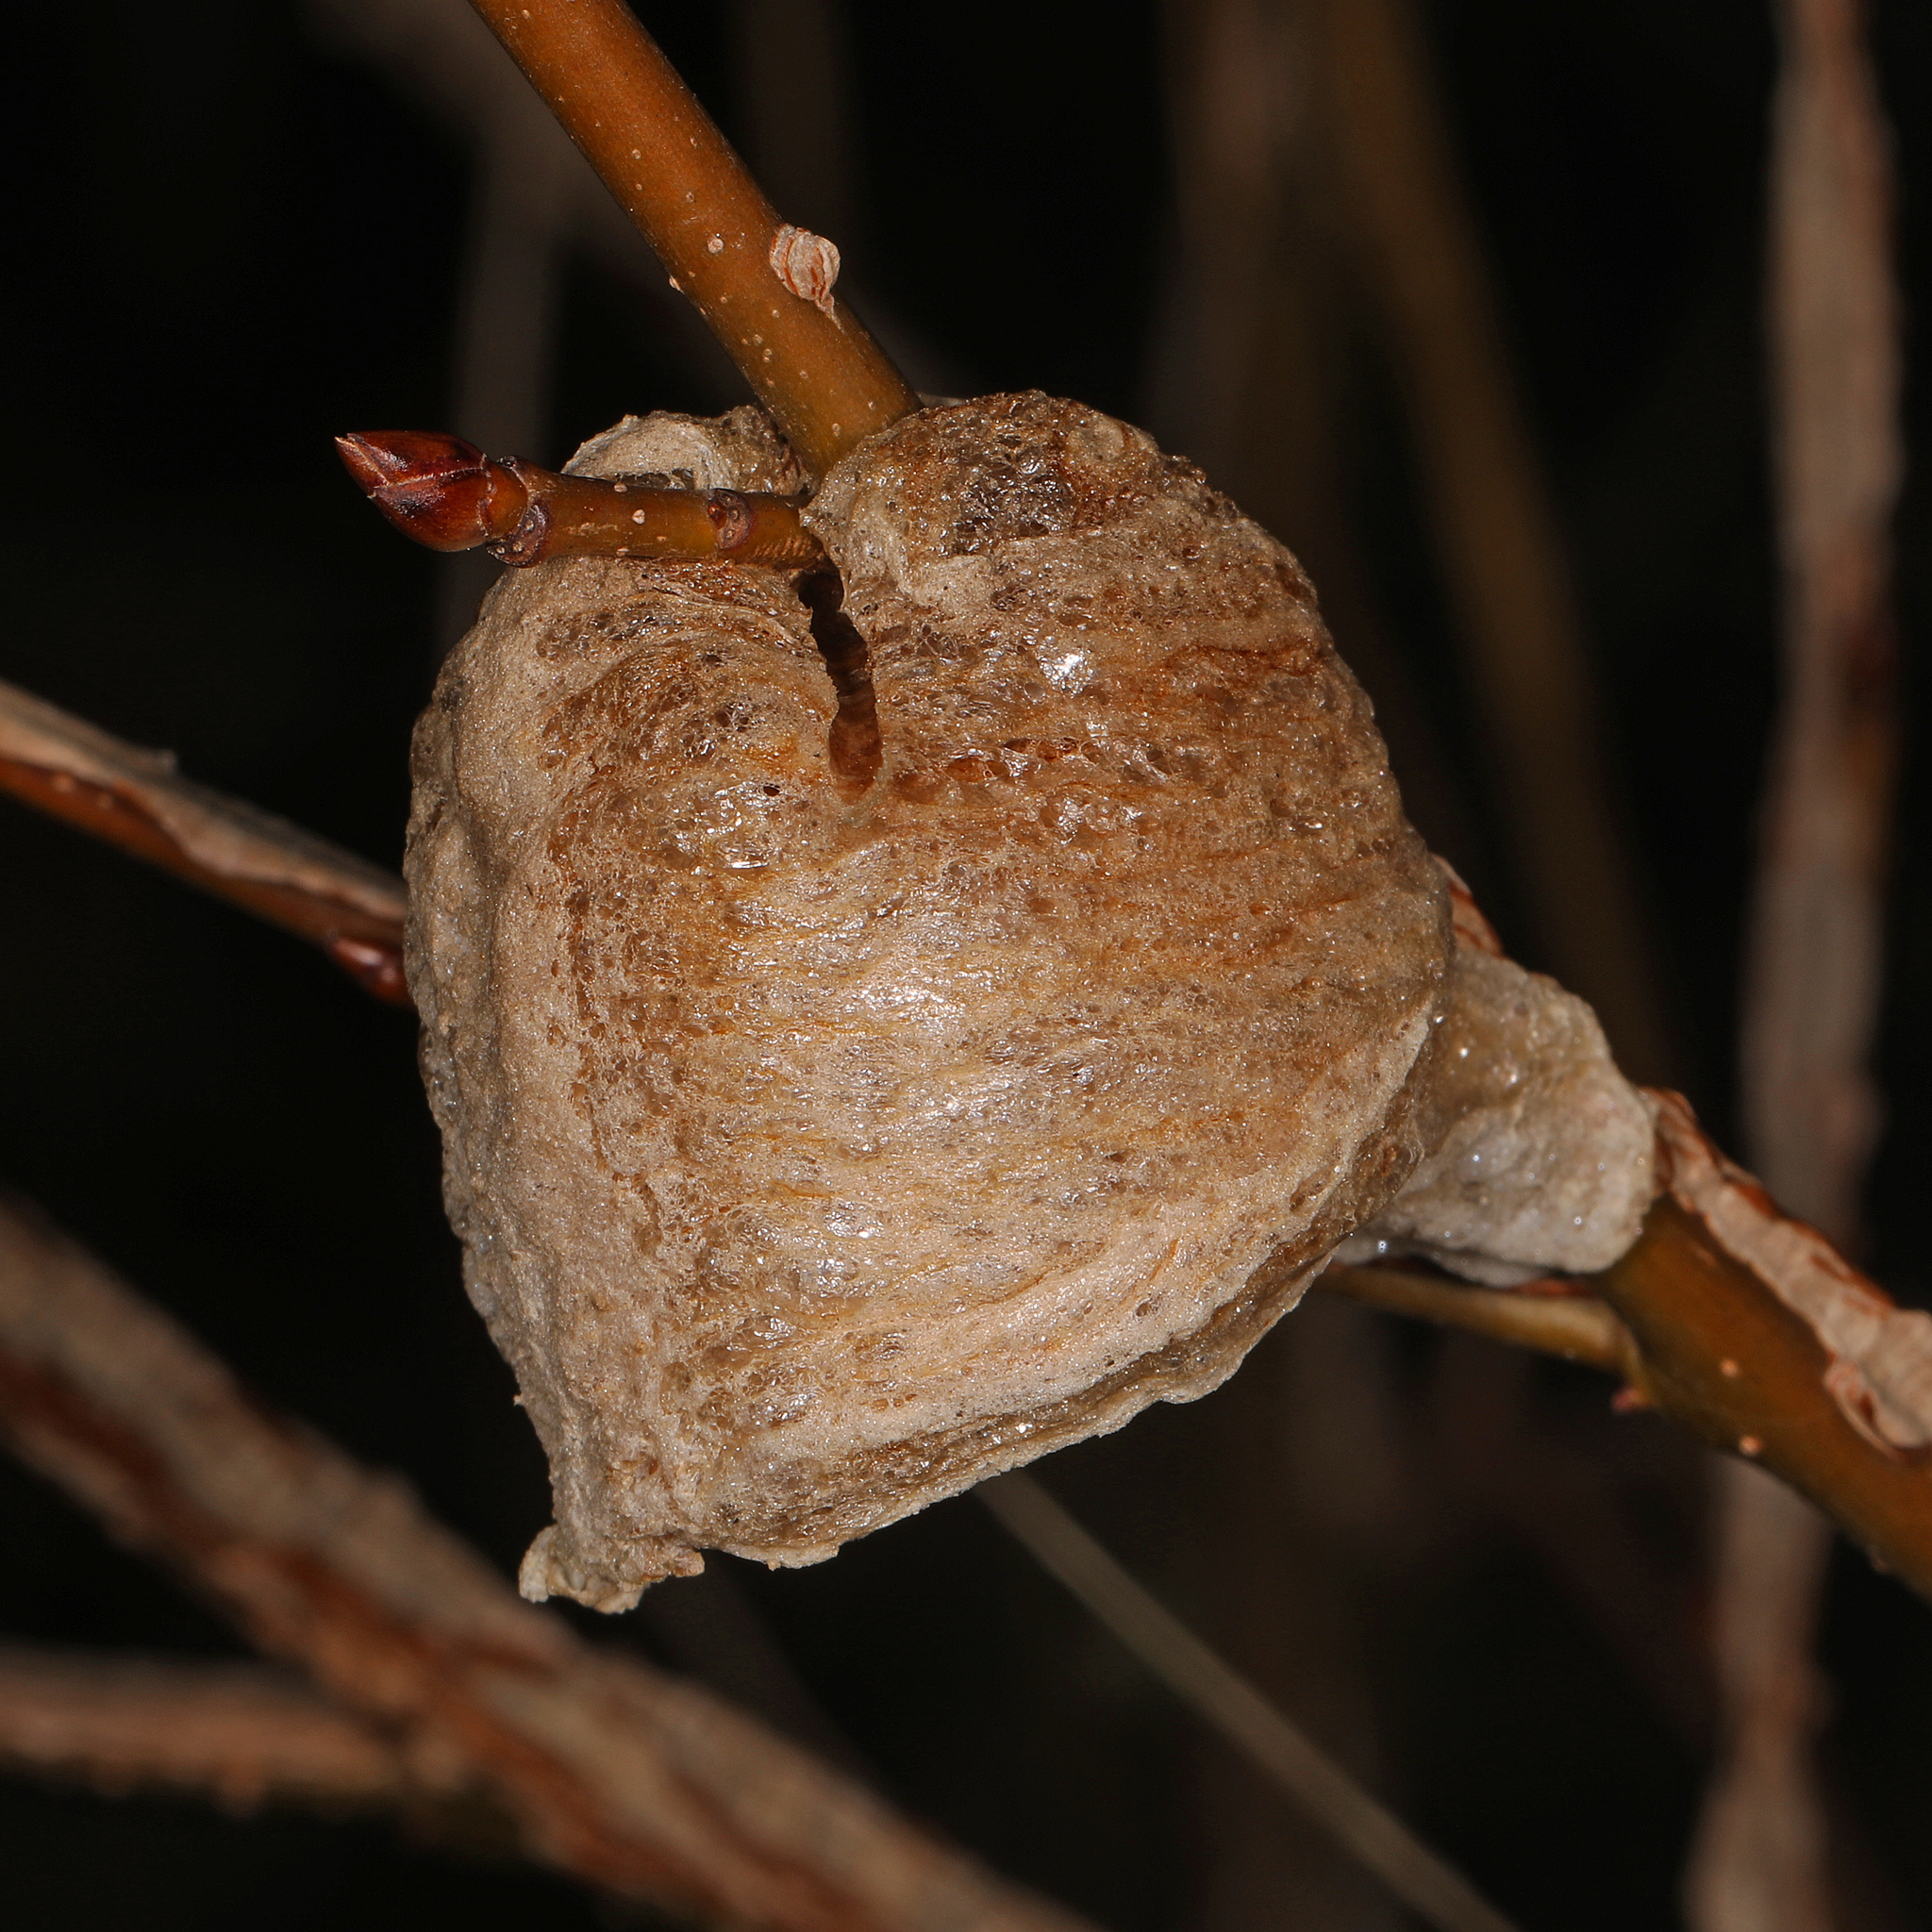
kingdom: Animalia
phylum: Arthropoda
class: Insecta
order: Mantodea
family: Mantidae
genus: Tenodera
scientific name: Tenodera sinensis
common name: Chinese mantis
